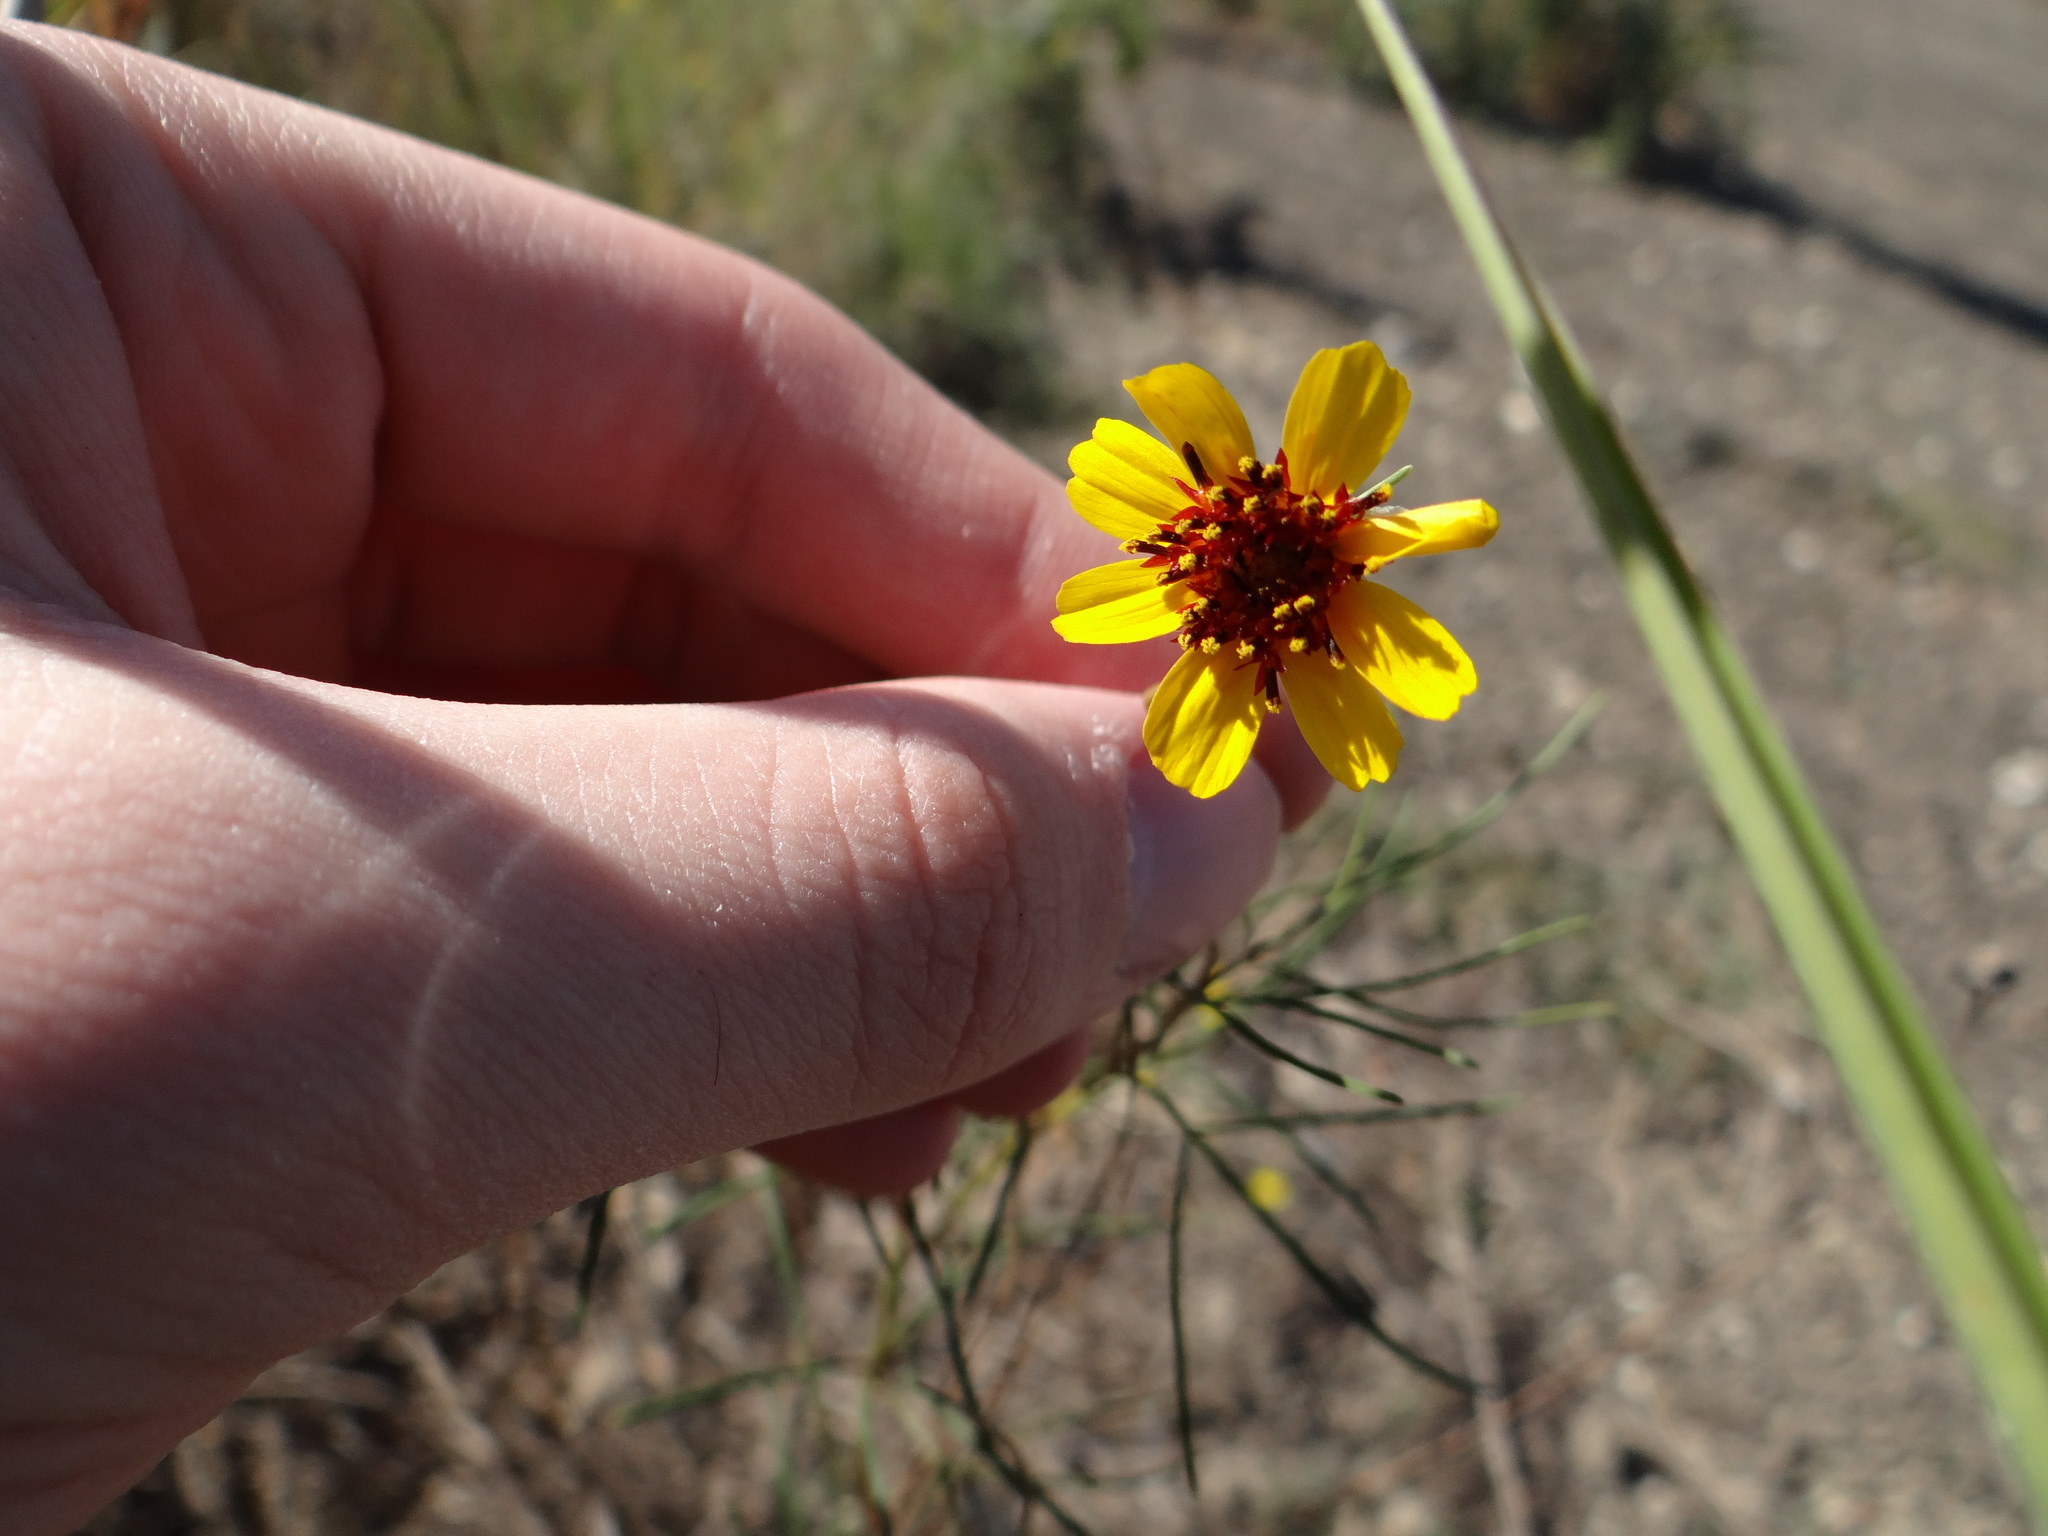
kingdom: Plantae
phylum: Tracheophyta
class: Magnoliopsida
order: Asterales
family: Asteraceae
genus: Thelesperma
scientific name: Thelesperma filifolium
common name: Stiff greenthread
